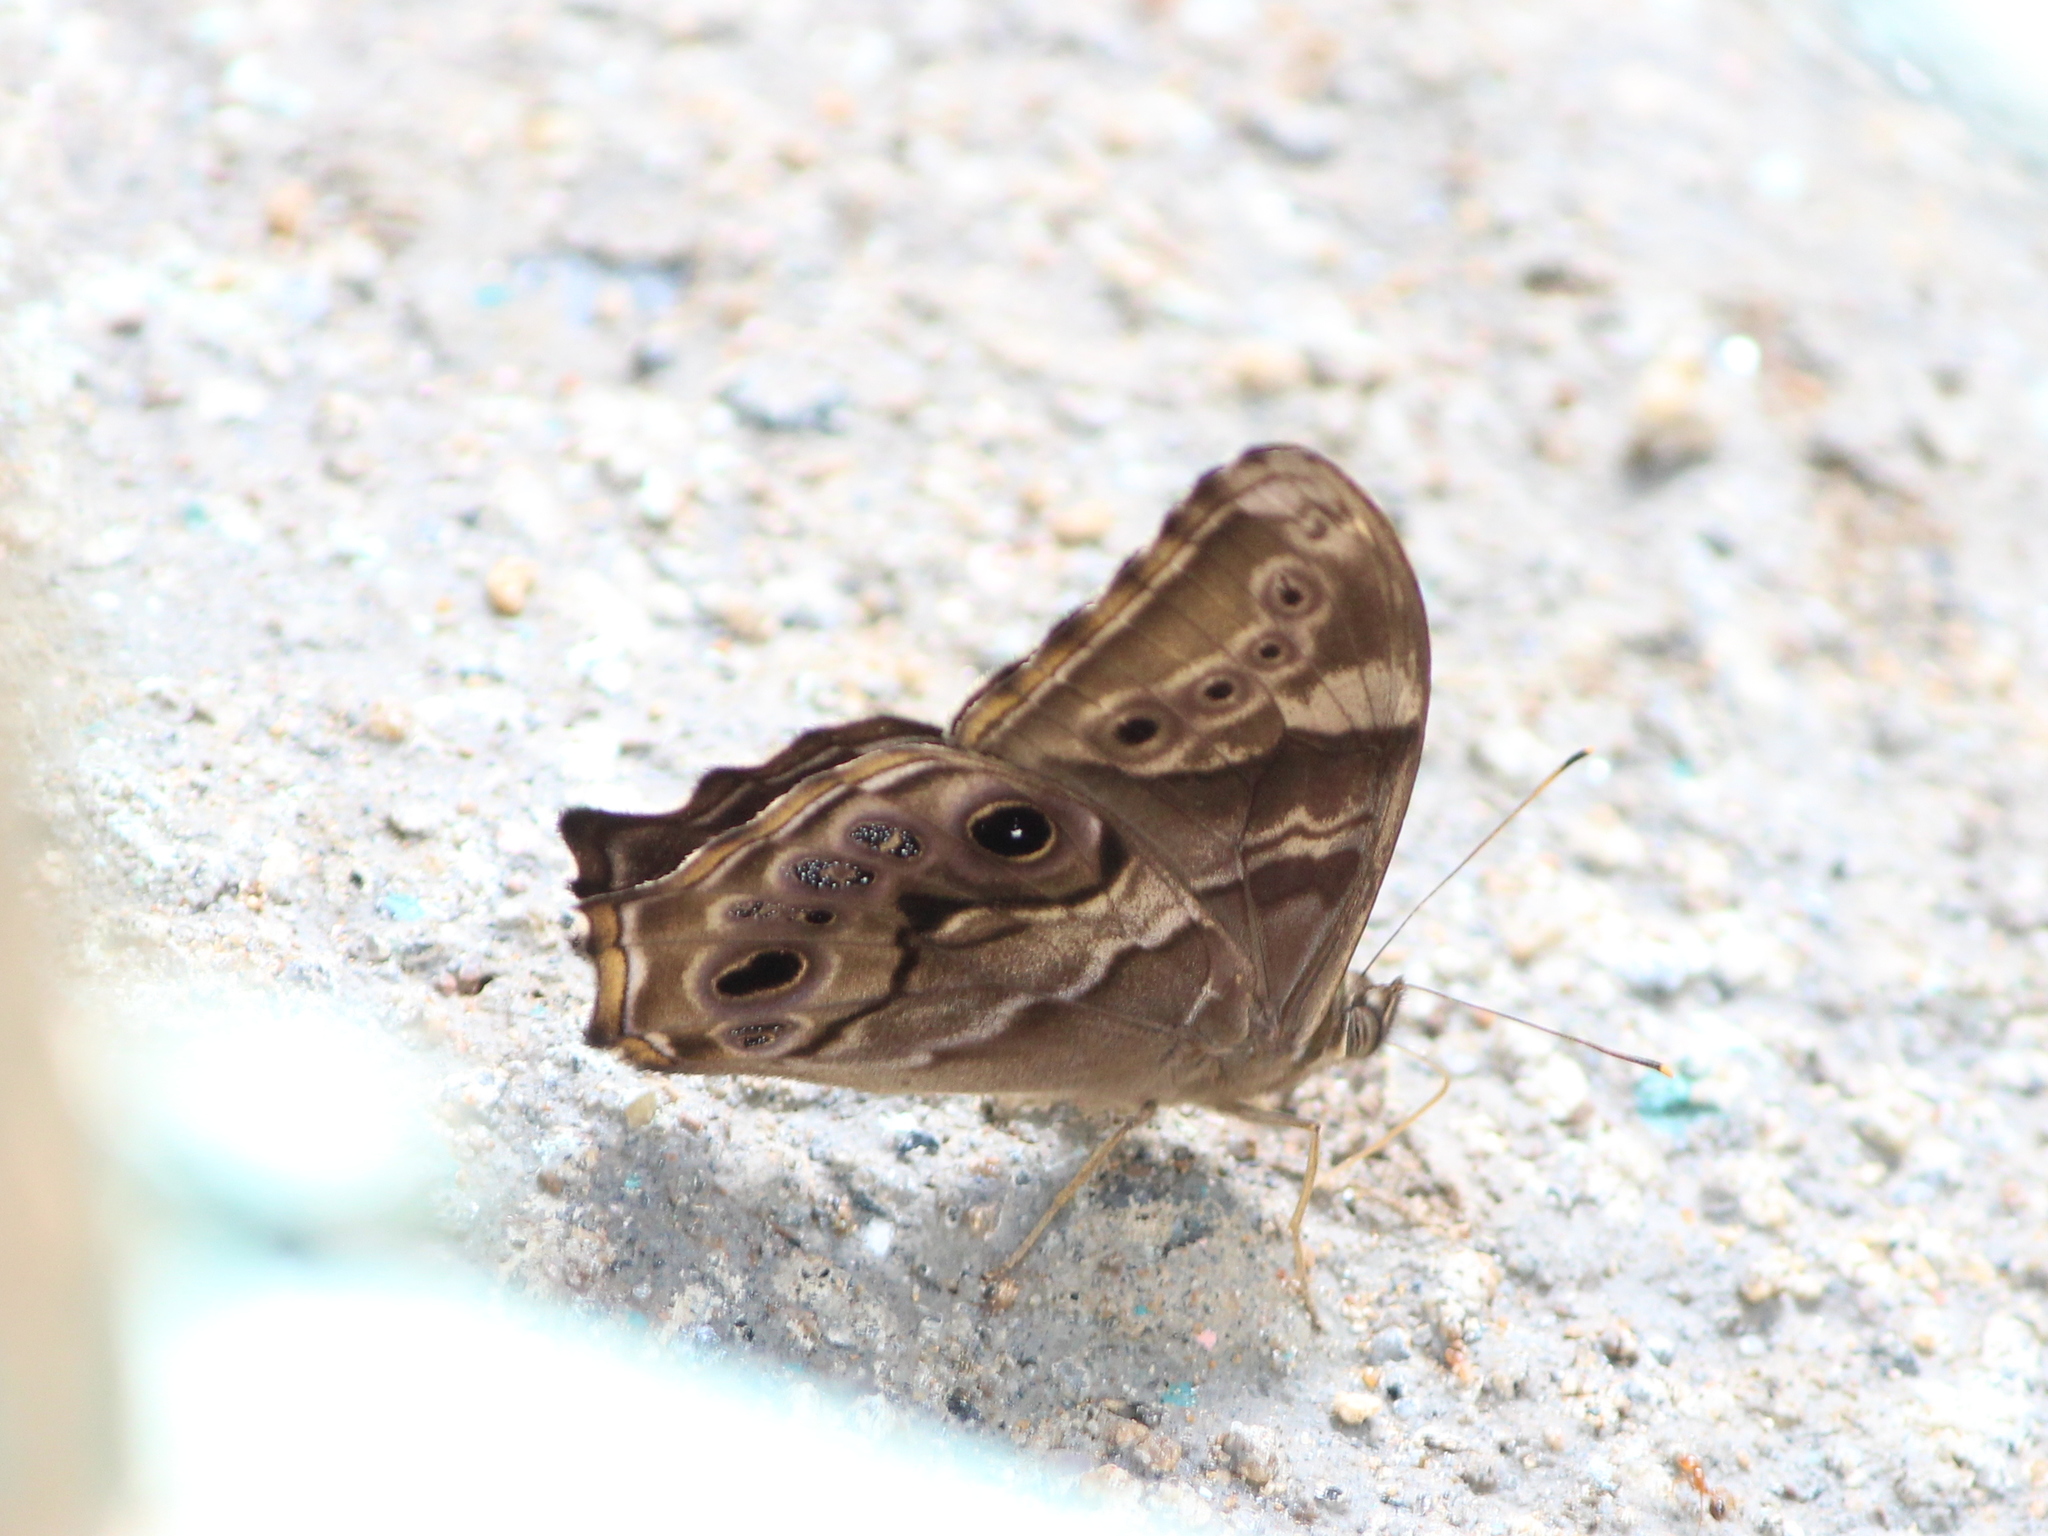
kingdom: Animalia
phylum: Arthropoda
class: Insecta
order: Lepidoptera
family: Nymphalidae
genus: Lethe
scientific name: Lethe drypetis
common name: Tamil treebrown
